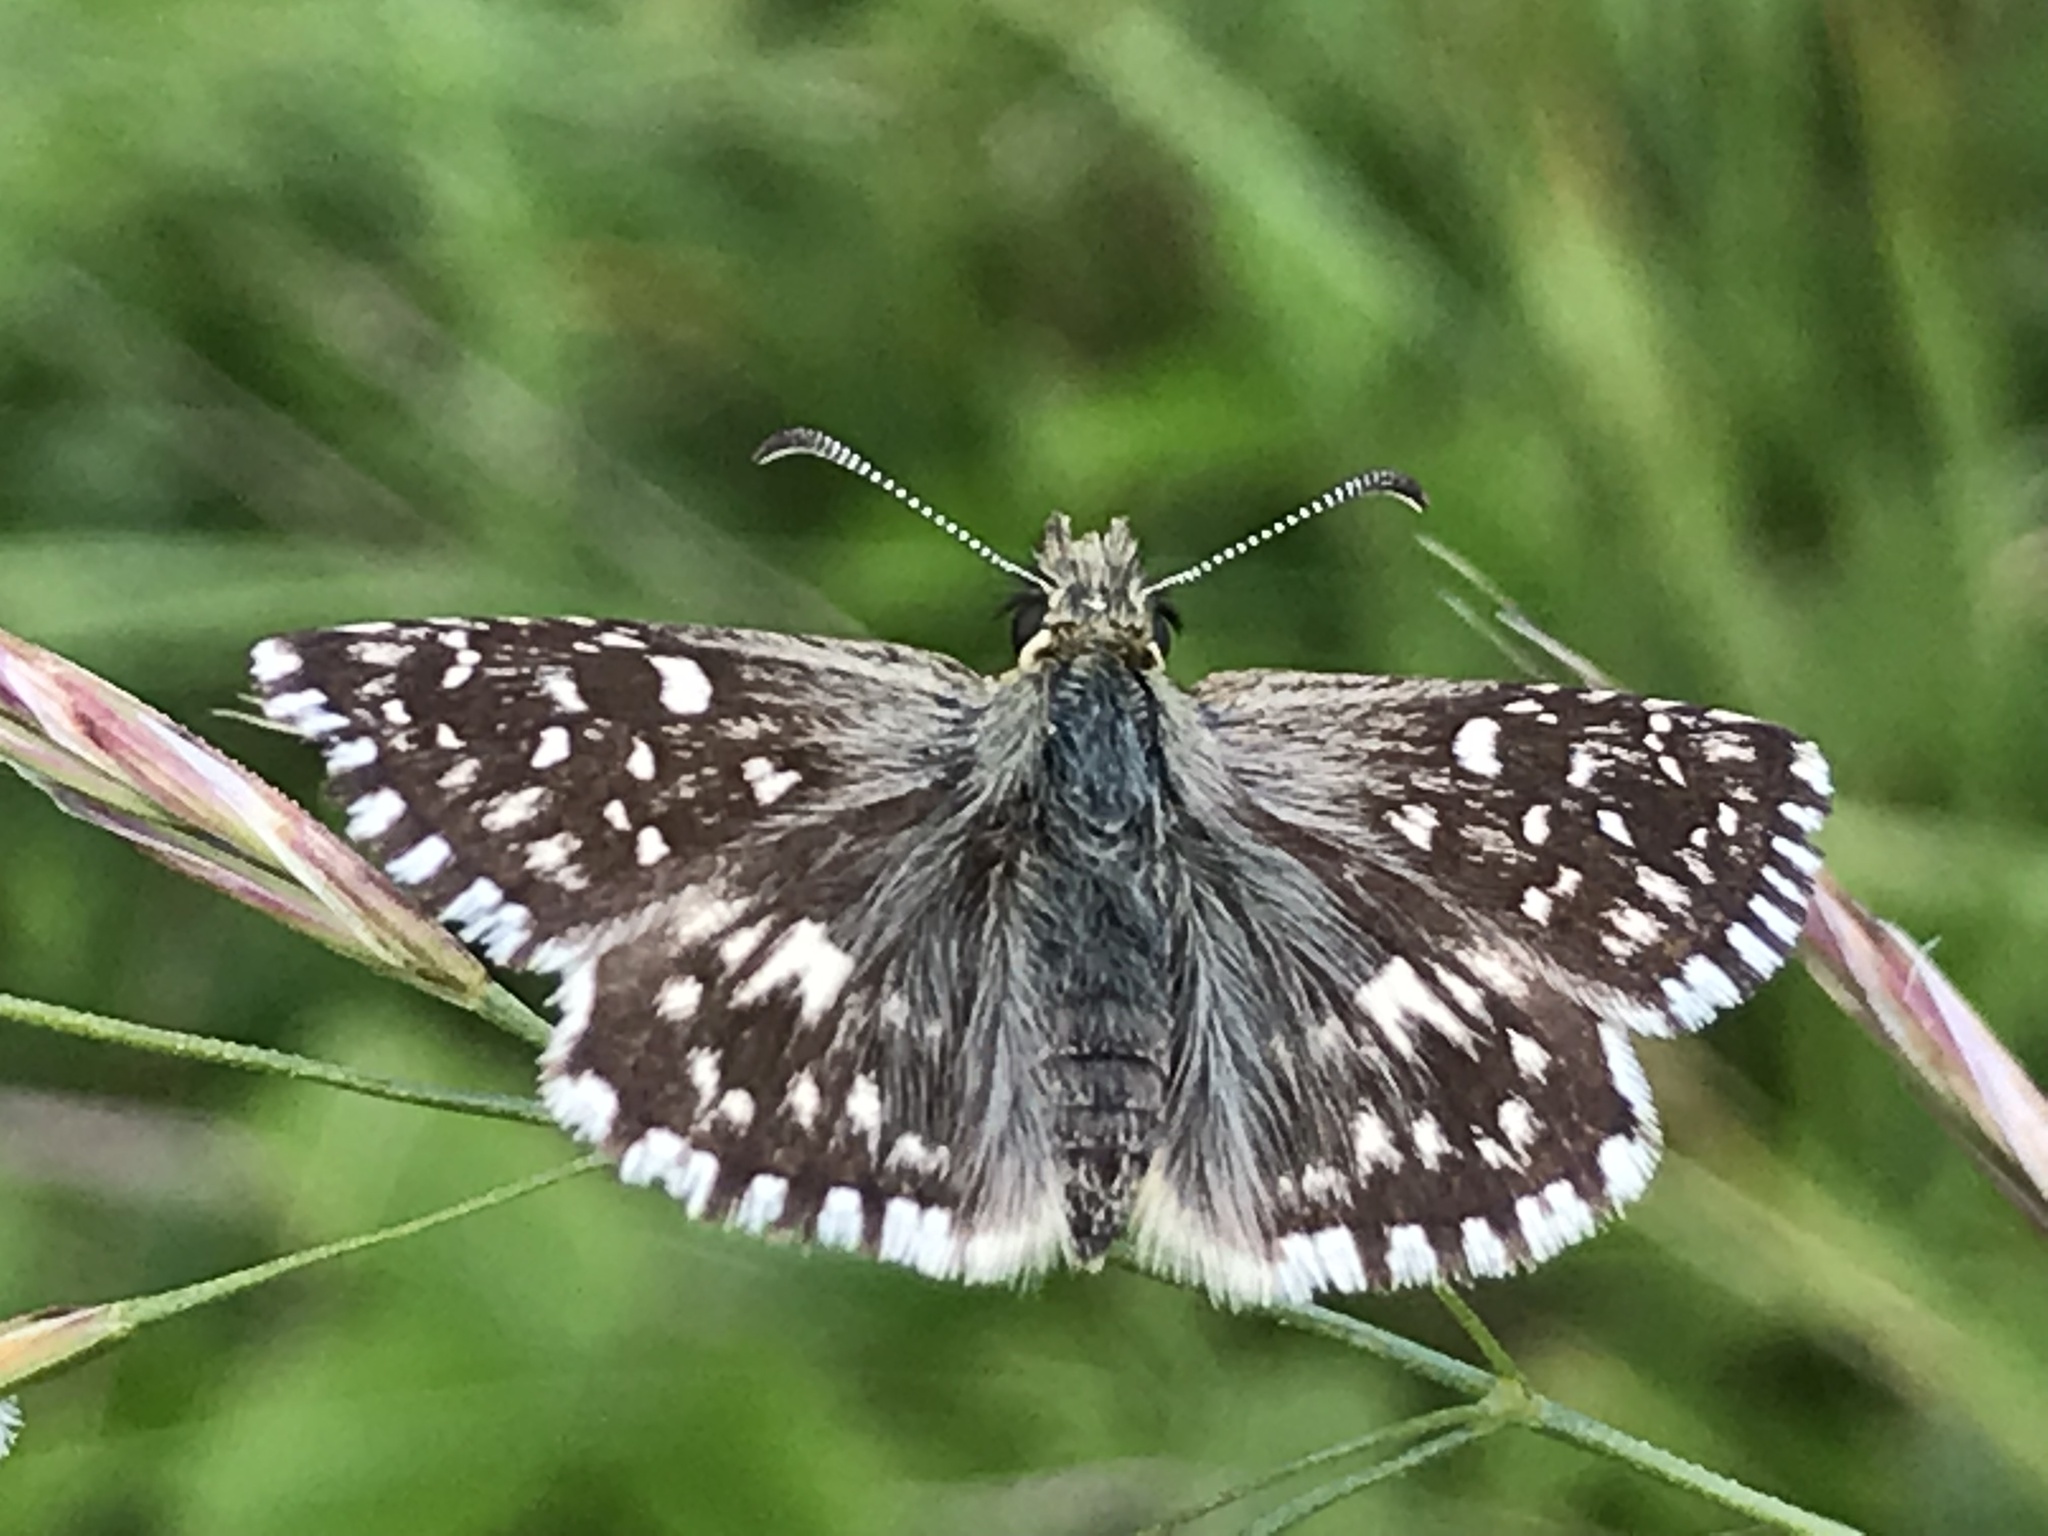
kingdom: Animalia
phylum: Arthropoda
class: Insecta
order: Lepidoptera
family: Hesperiidae
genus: Pyrgus
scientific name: Pyrgus malvae
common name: Grizzled skipper
